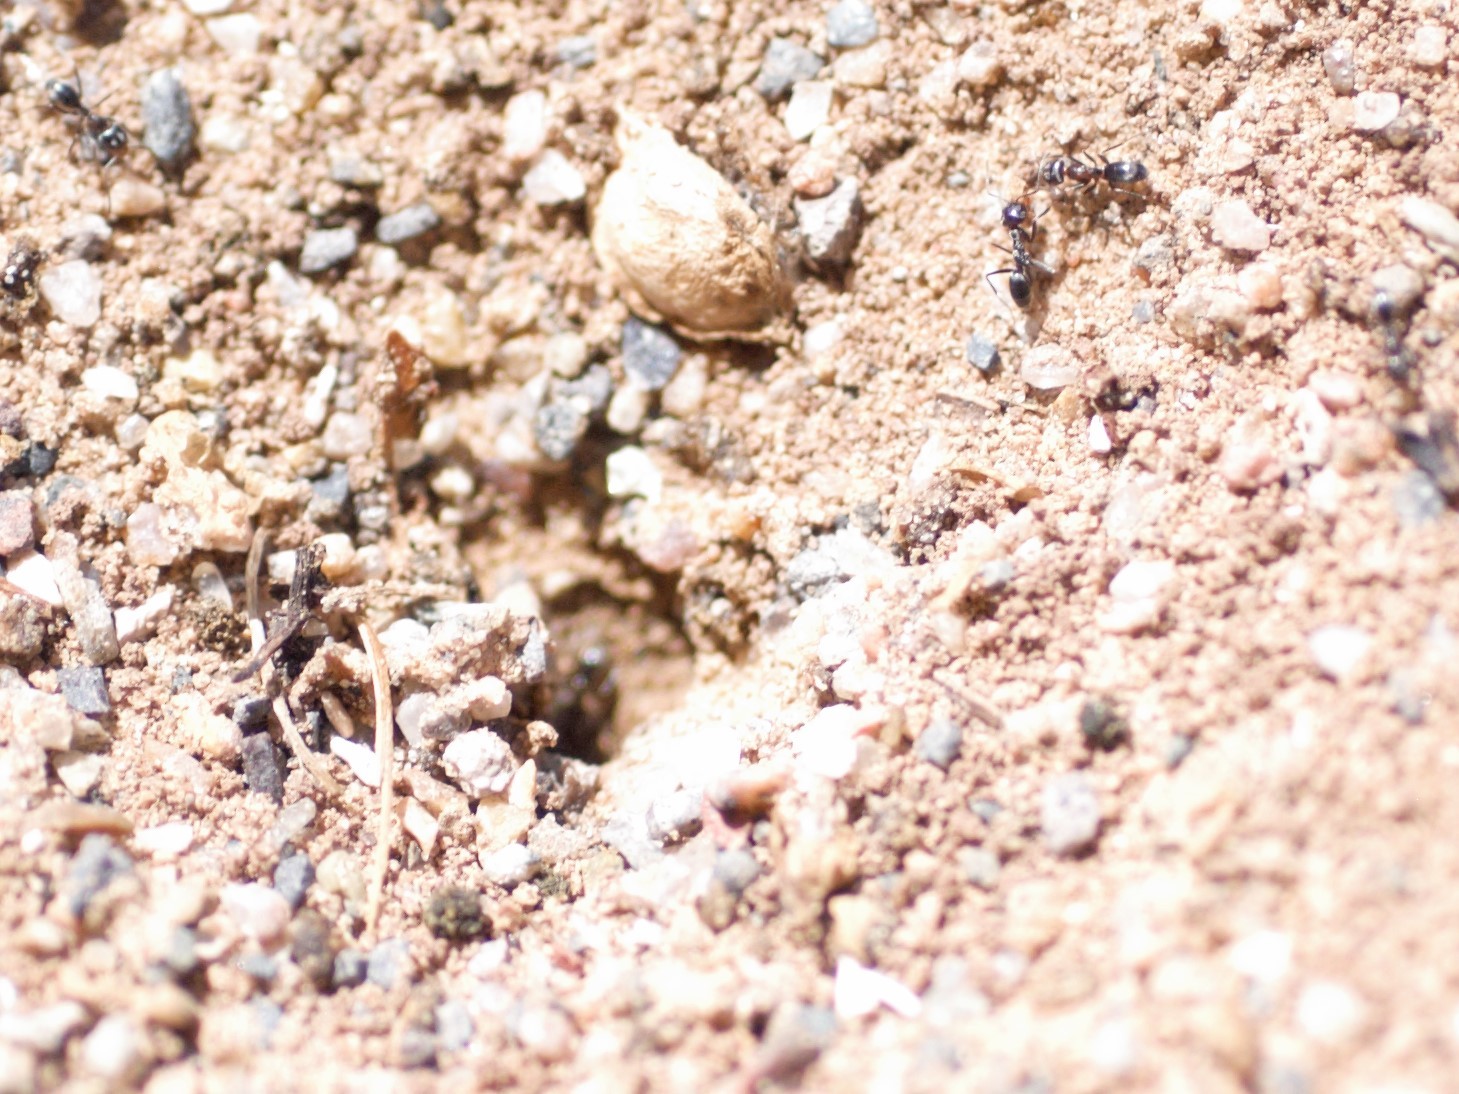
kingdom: Animalia
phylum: Arthropoda
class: Insecta
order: Hymenoptera
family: Formicidae
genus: Dorymyrmex
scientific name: Dorymyrmex
